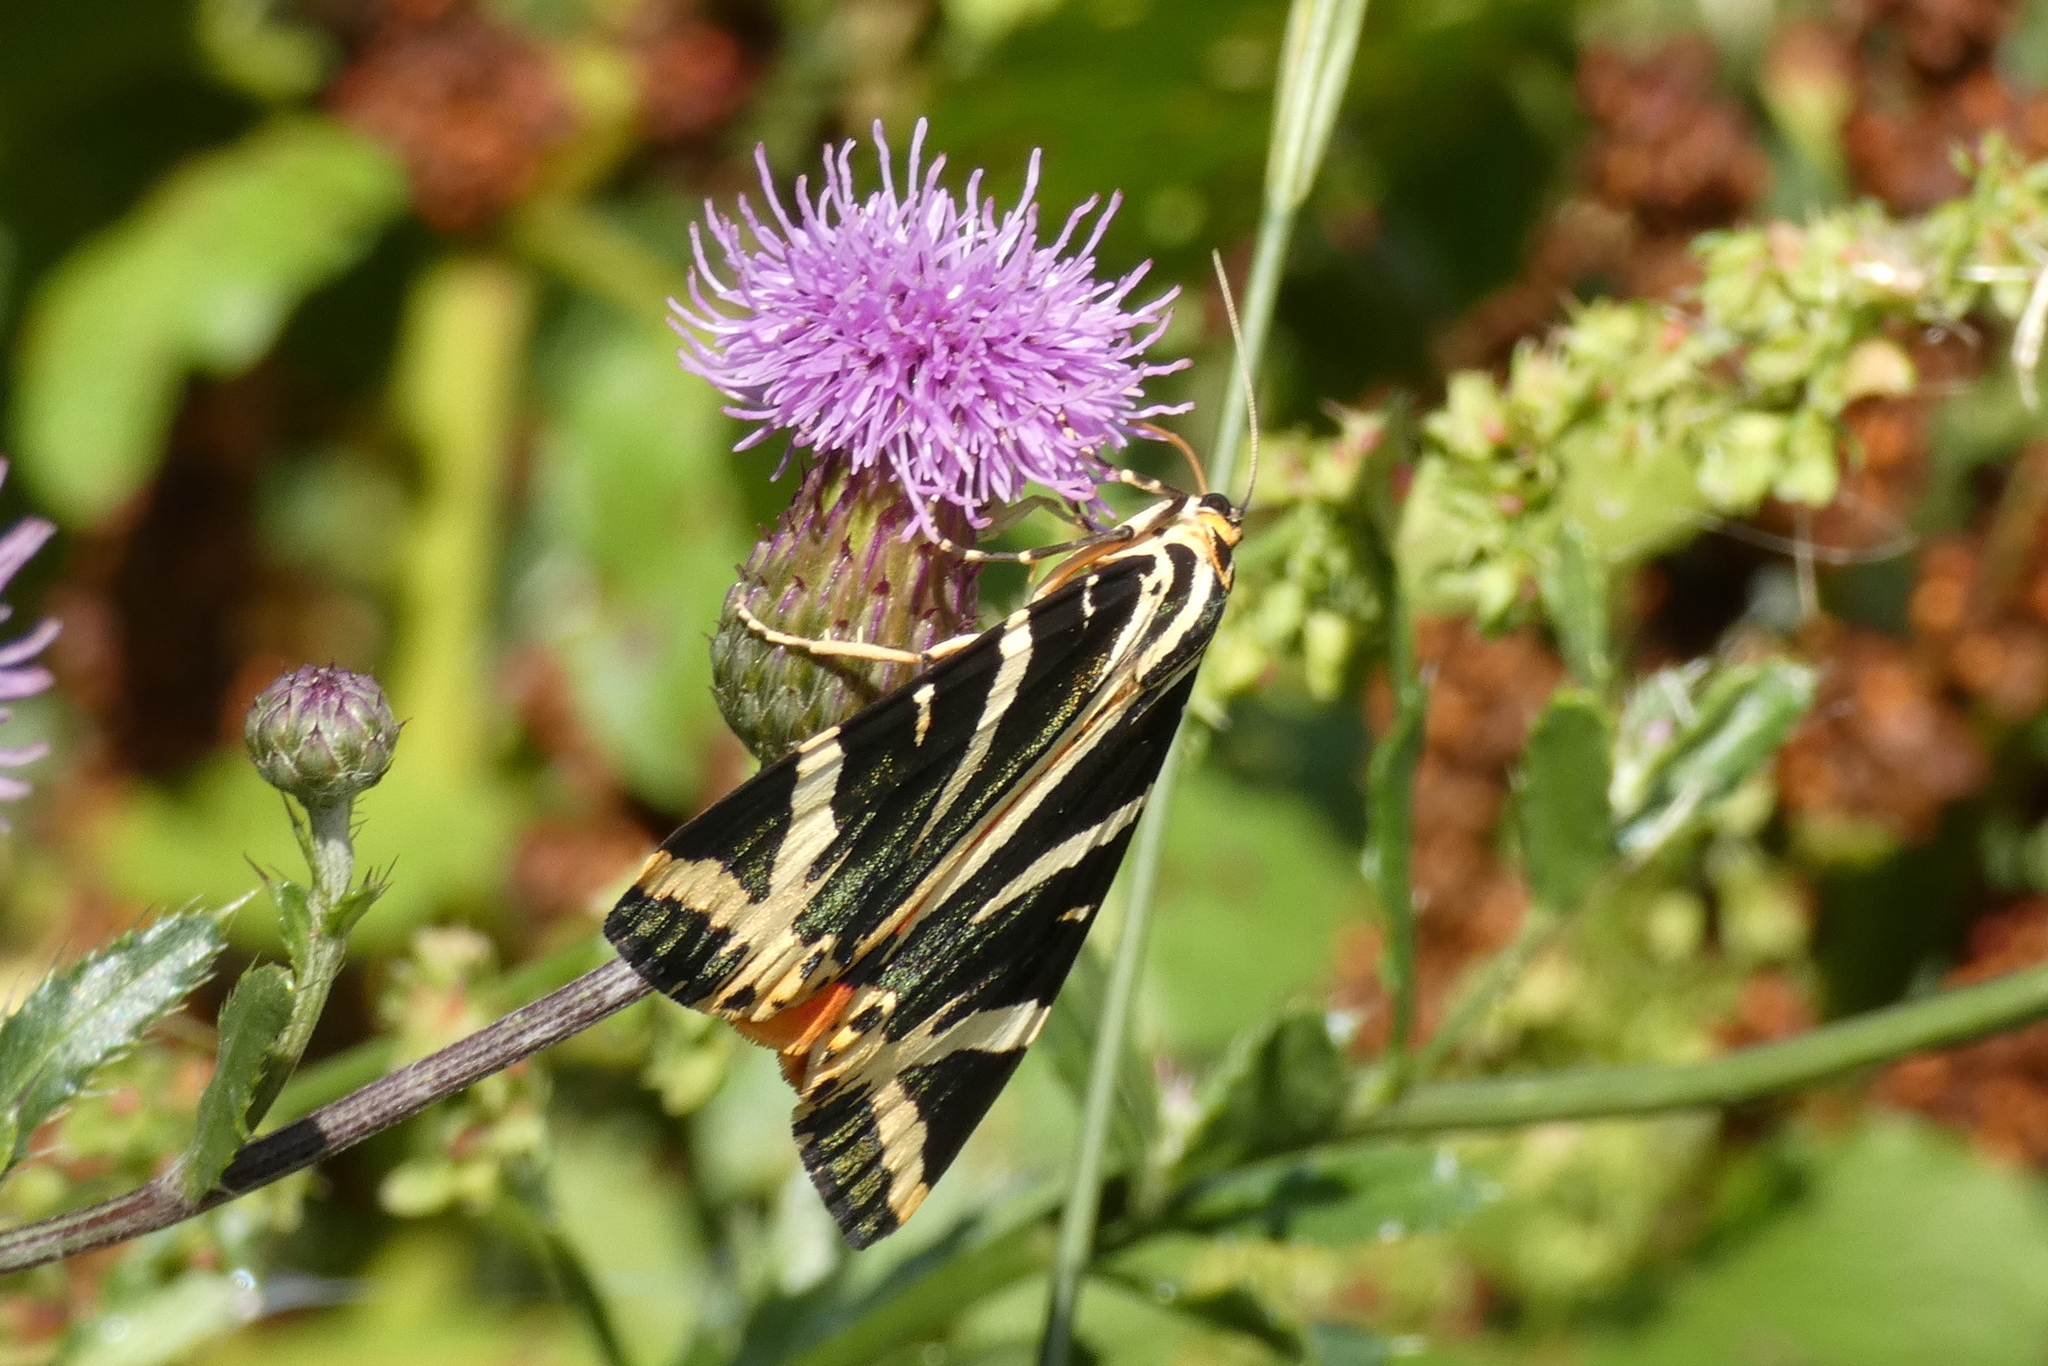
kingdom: Animalia
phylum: Arthropoda
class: Insecta
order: Lepidoptera
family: Erebidae
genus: Euplagia
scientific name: Euplagia quadripunctaria
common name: Jersey tiger
